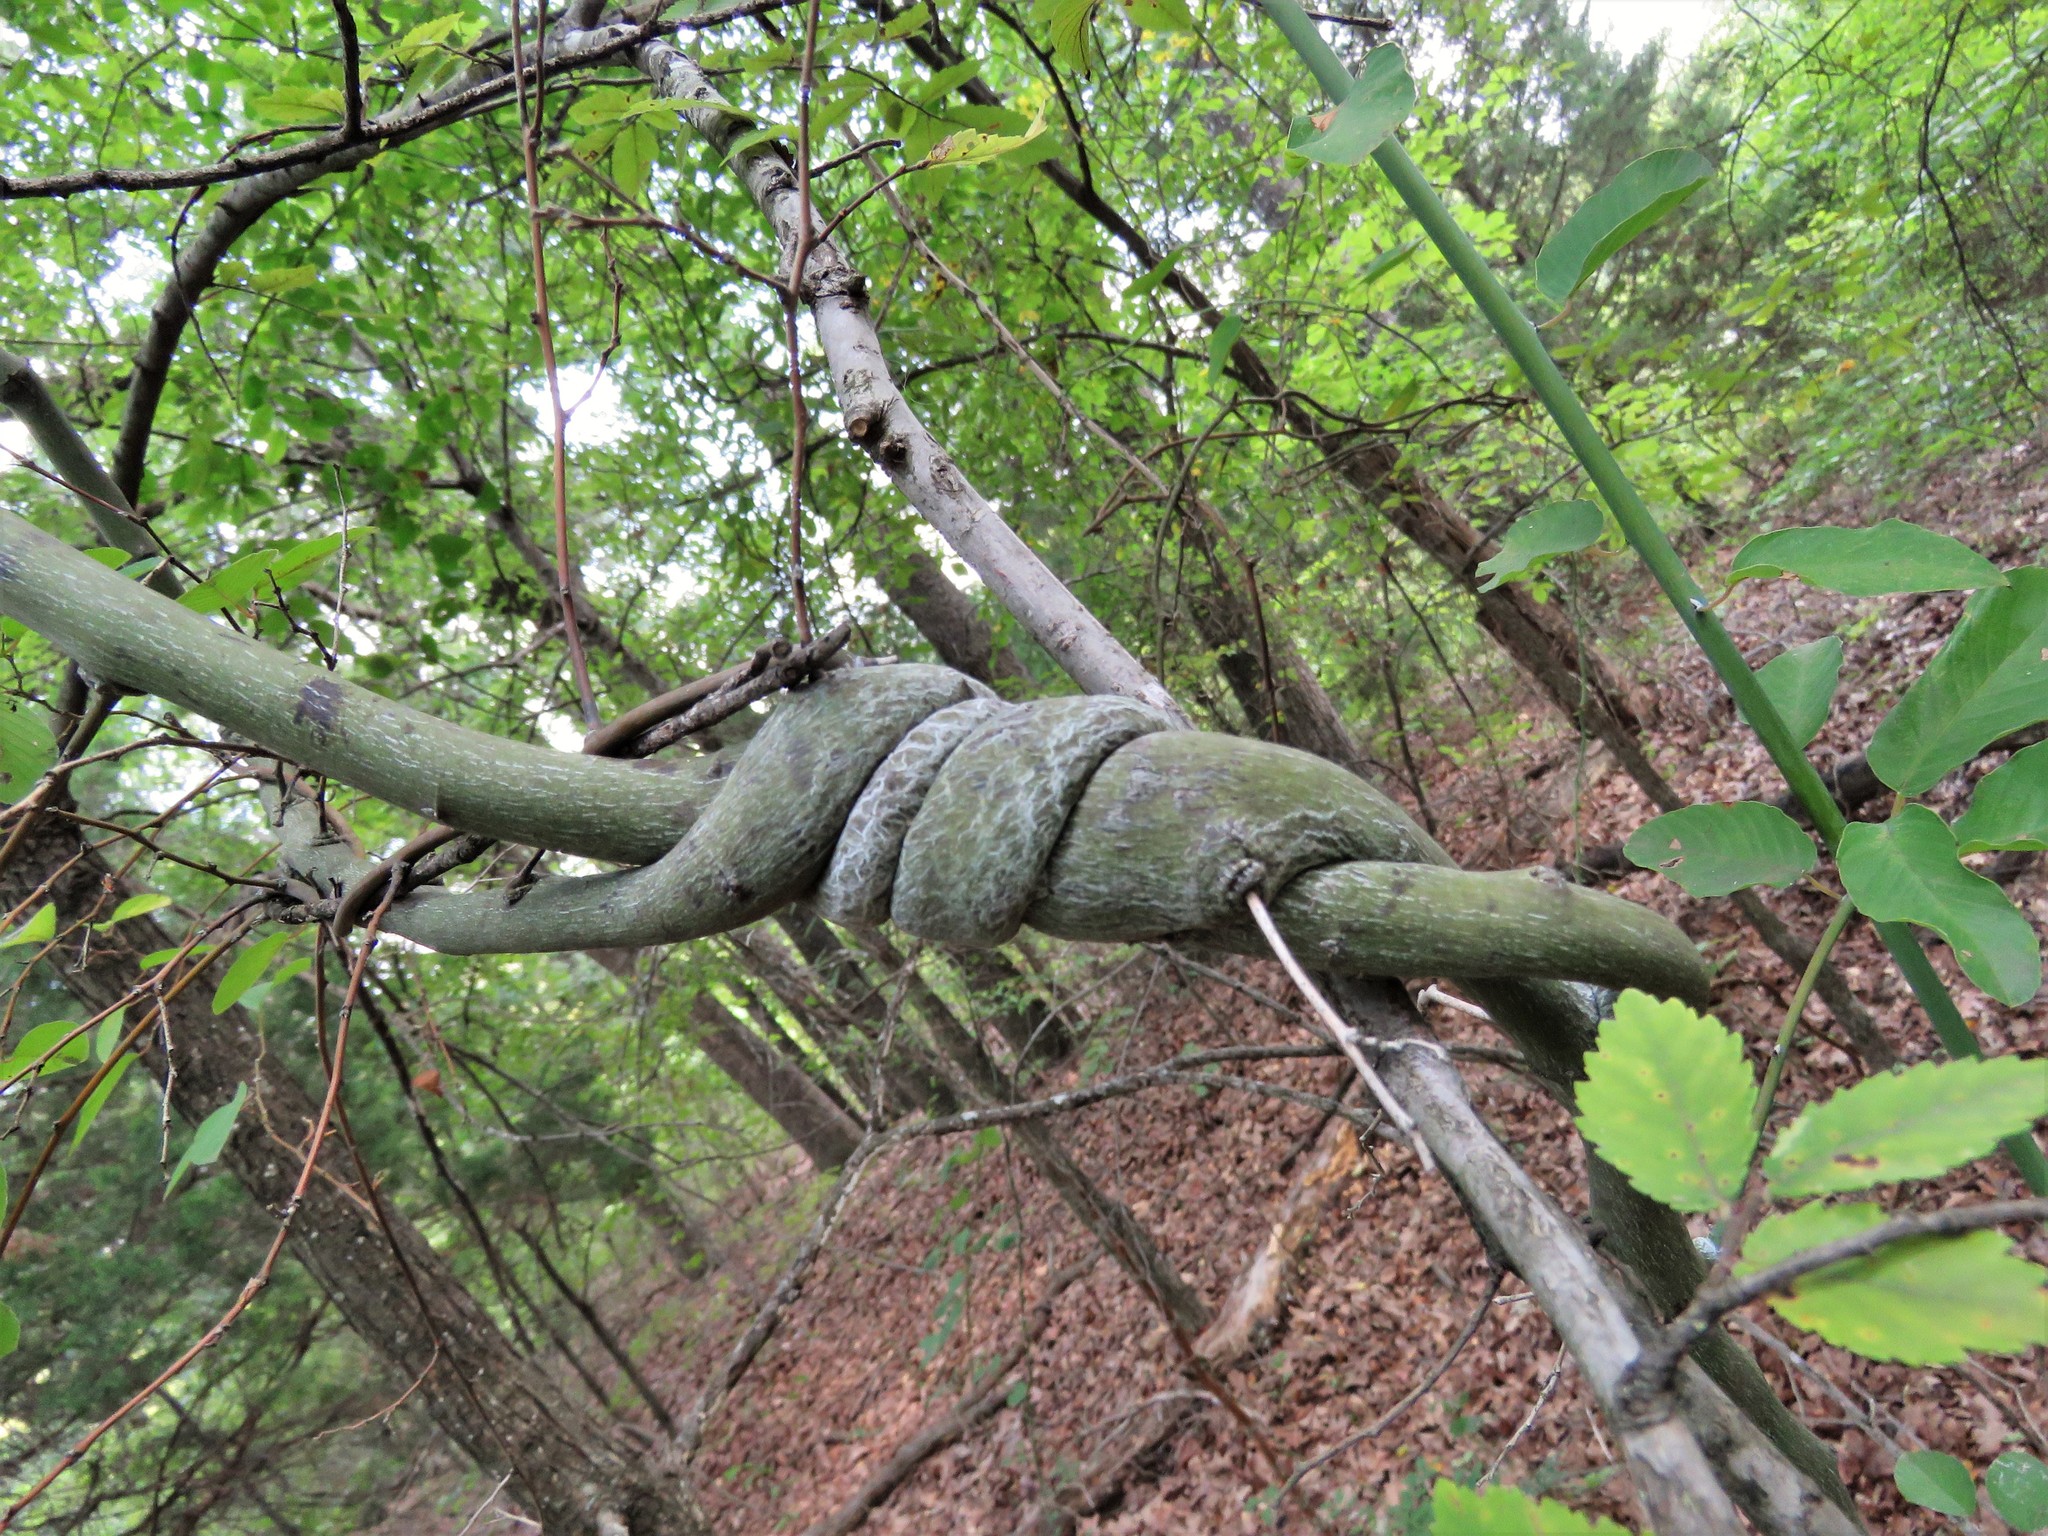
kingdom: Plantae
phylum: Tracheophyta
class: Magnoliopsida
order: Rosales
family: Rhamnaceae
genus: Berchemia
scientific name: Berchemia scandens
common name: Supplejack
